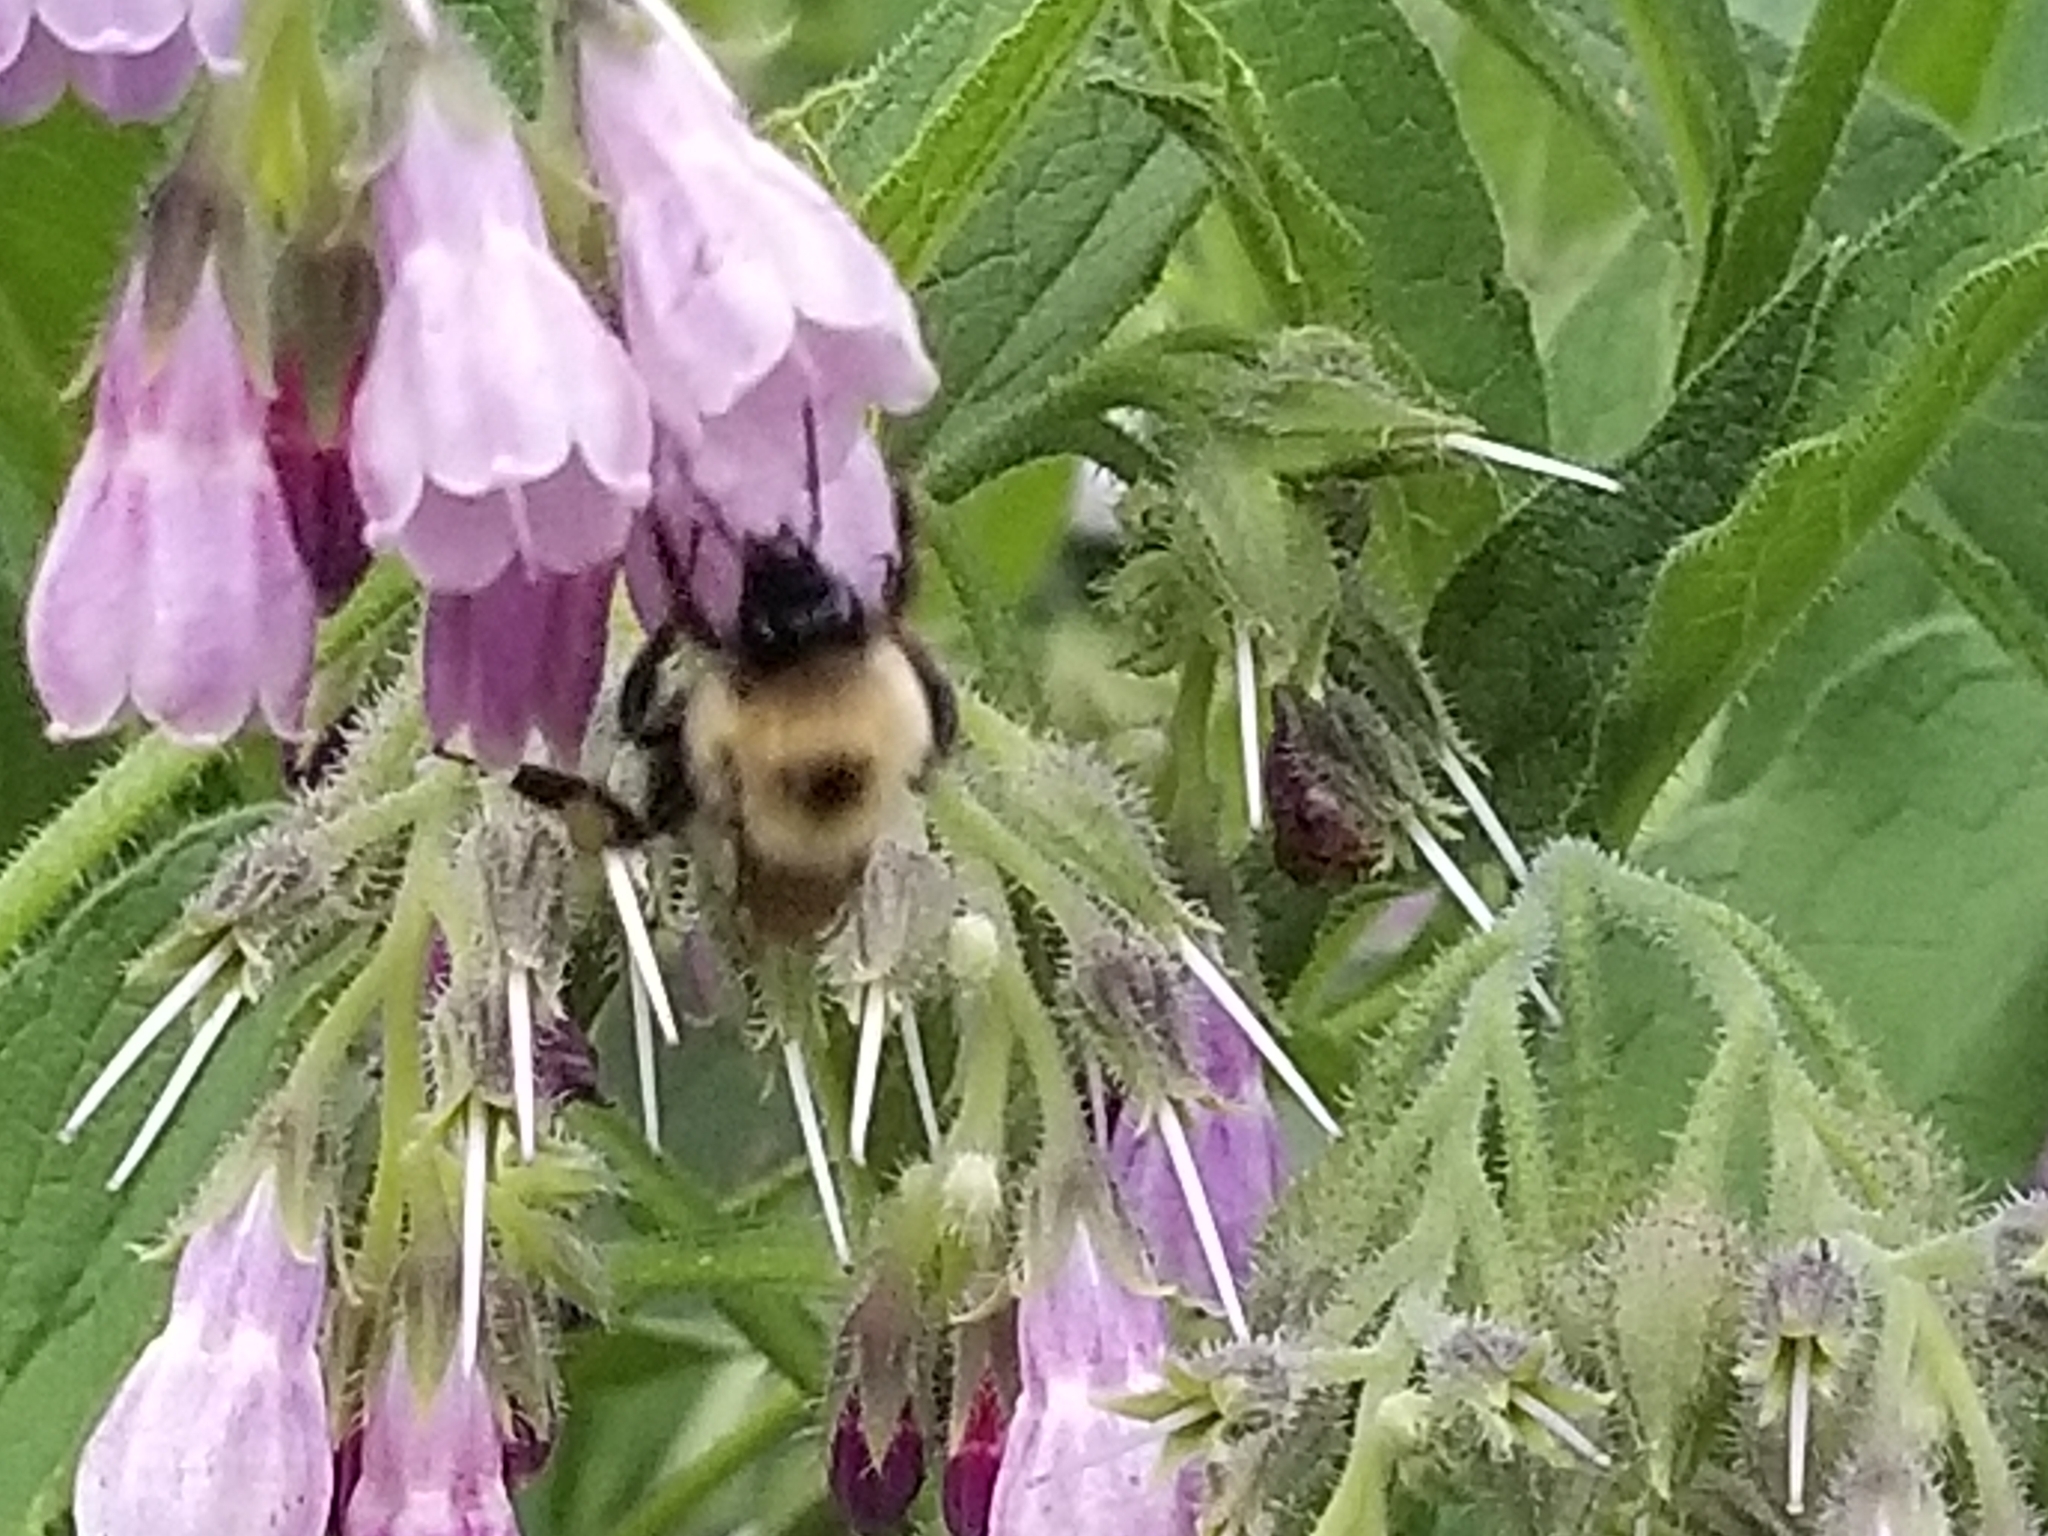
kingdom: Animalia
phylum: Arthropoda
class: Insecta
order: Hymenoptera
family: Apidae
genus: Pyrobombus
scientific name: Pyrobombus
